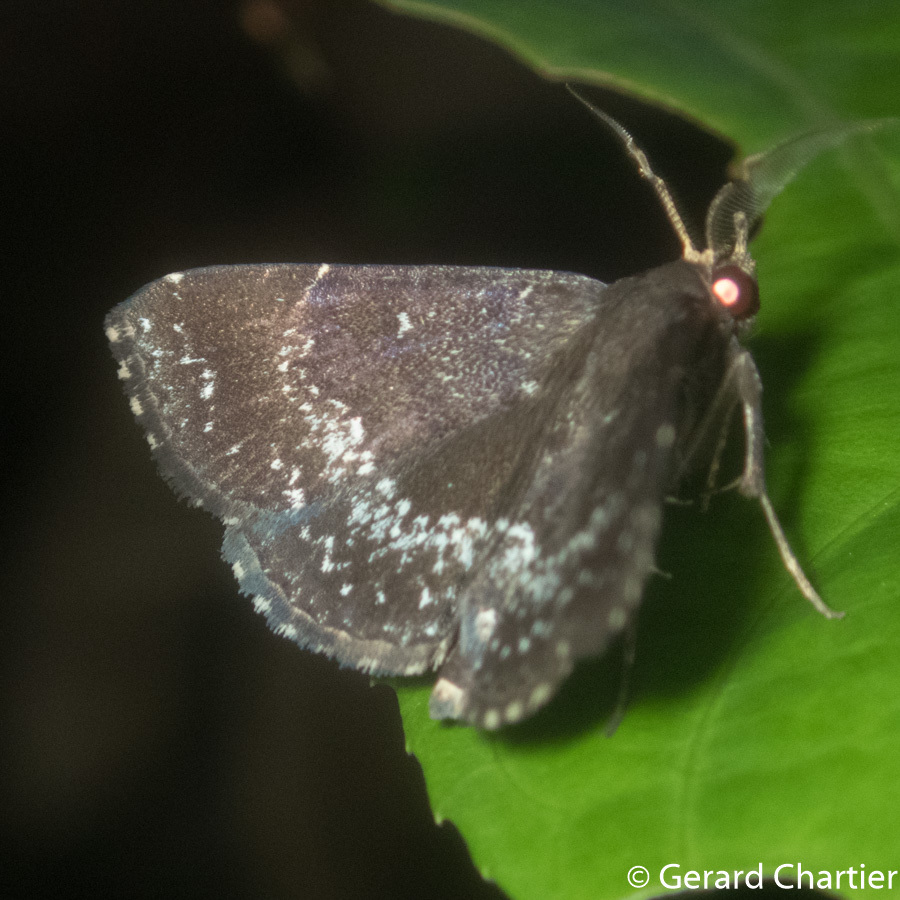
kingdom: Animalia
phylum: Arthropoda
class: Insecta
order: Lepidoptera
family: Erebidae
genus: Adrapsa
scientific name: Adrapsa geometroides
